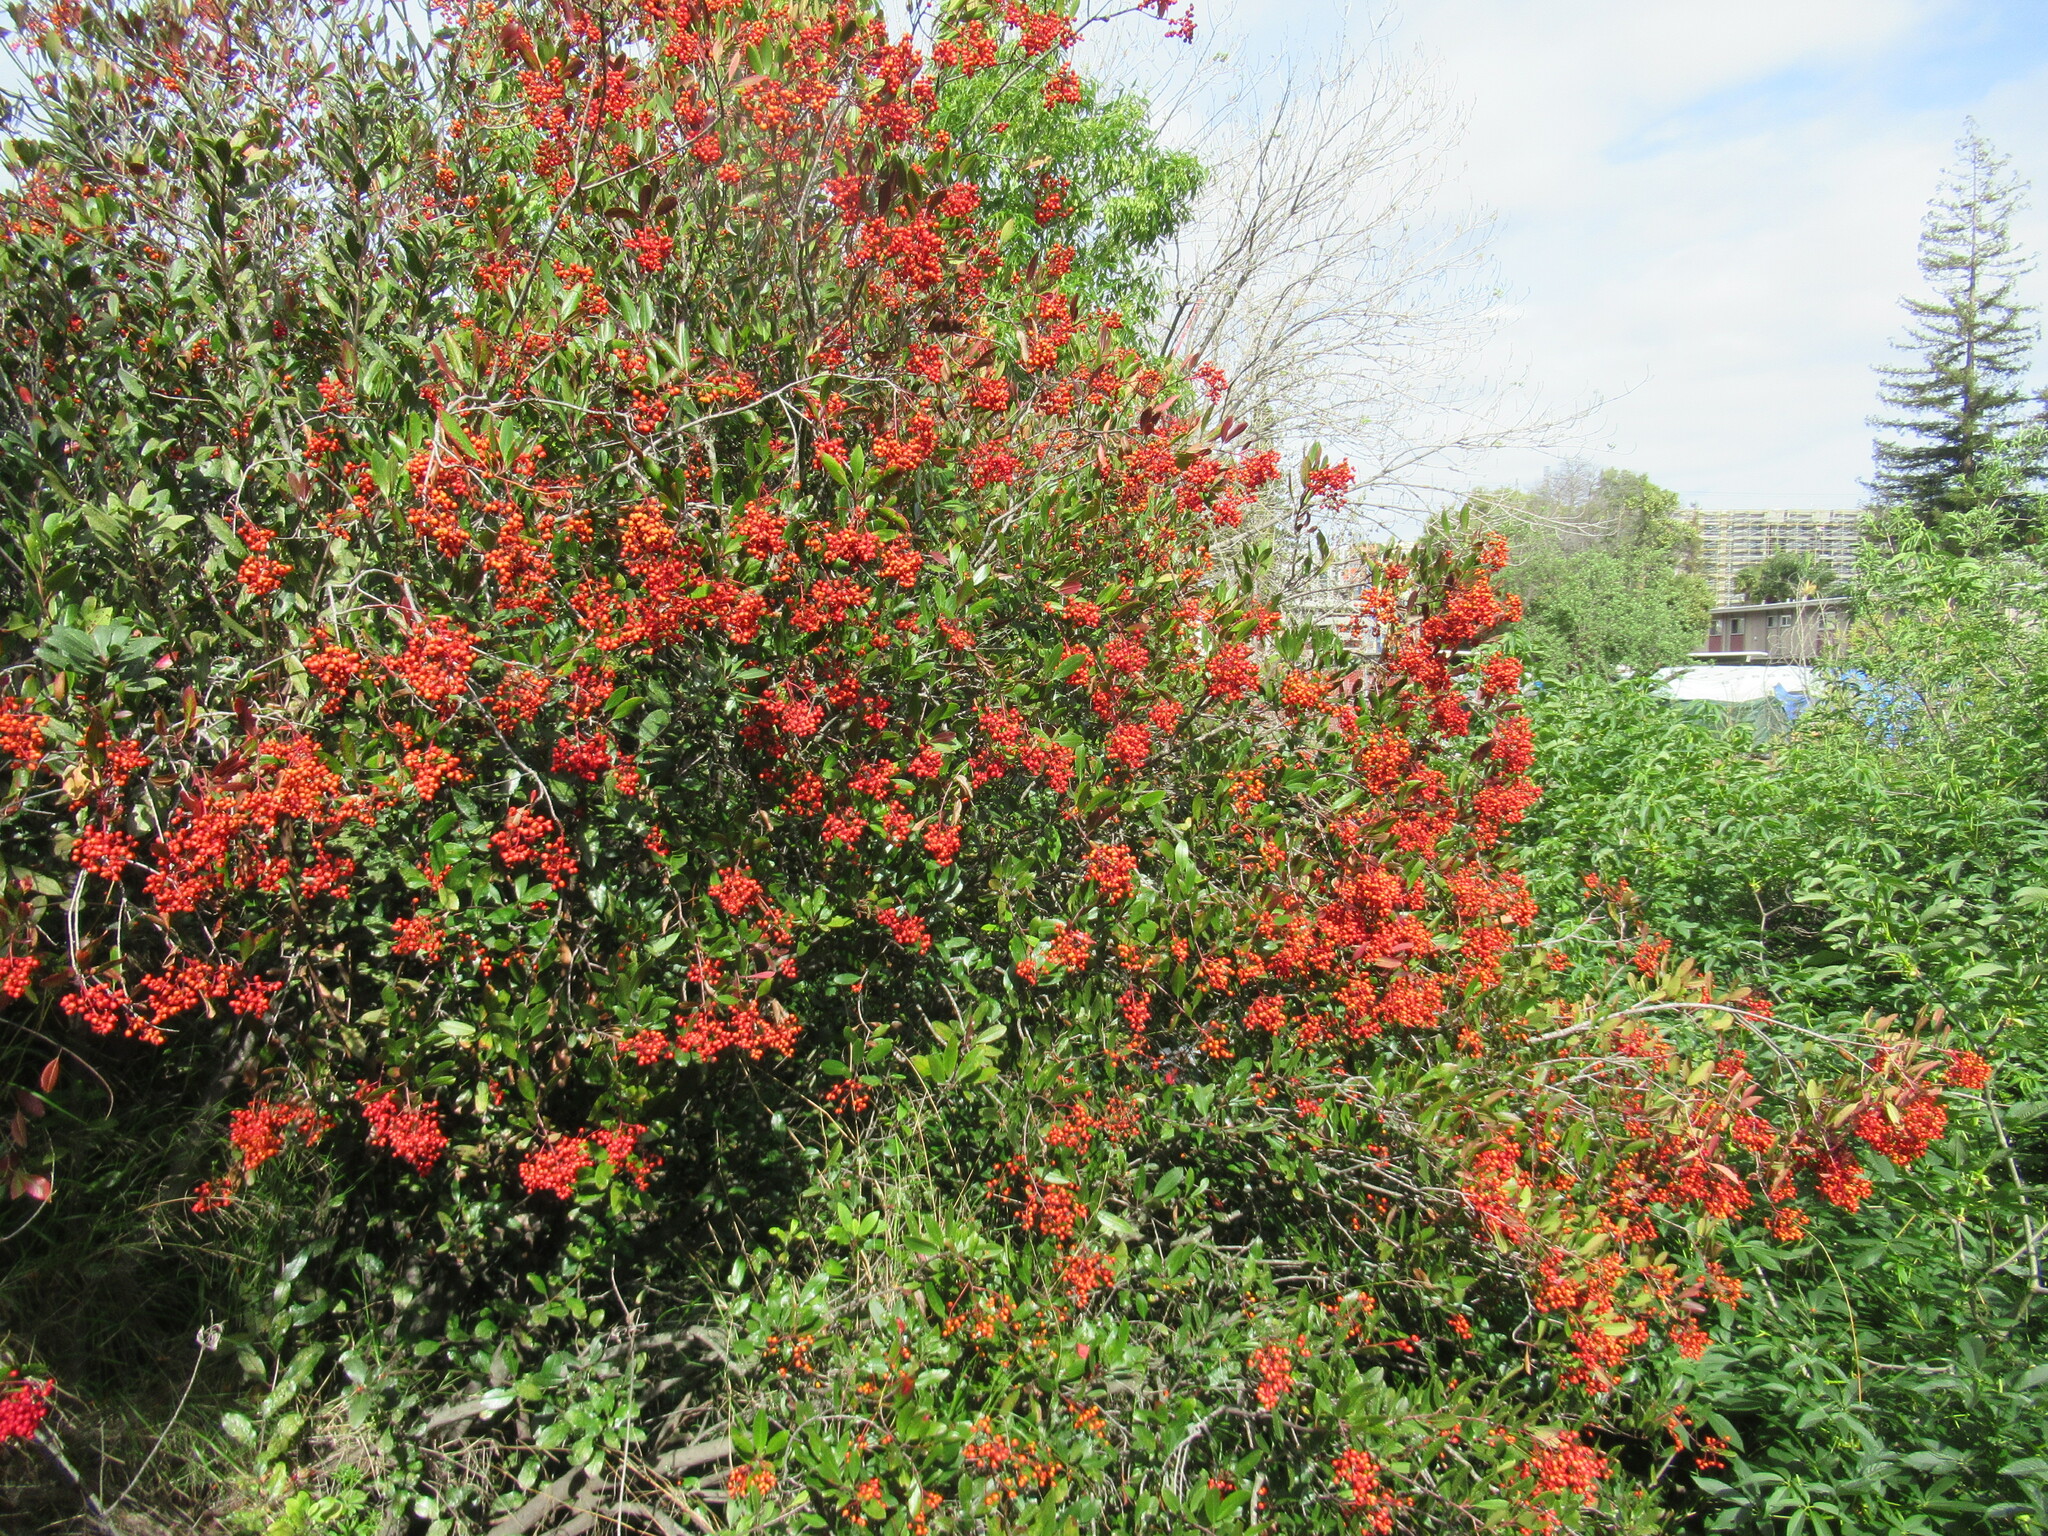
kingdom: Plantae
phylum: Tracheophyta
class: Magnoliopsida
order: Rosales
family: Rosaceae
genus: Heteromeles
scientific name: Heteromeles arbutifolia
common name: California-holly
